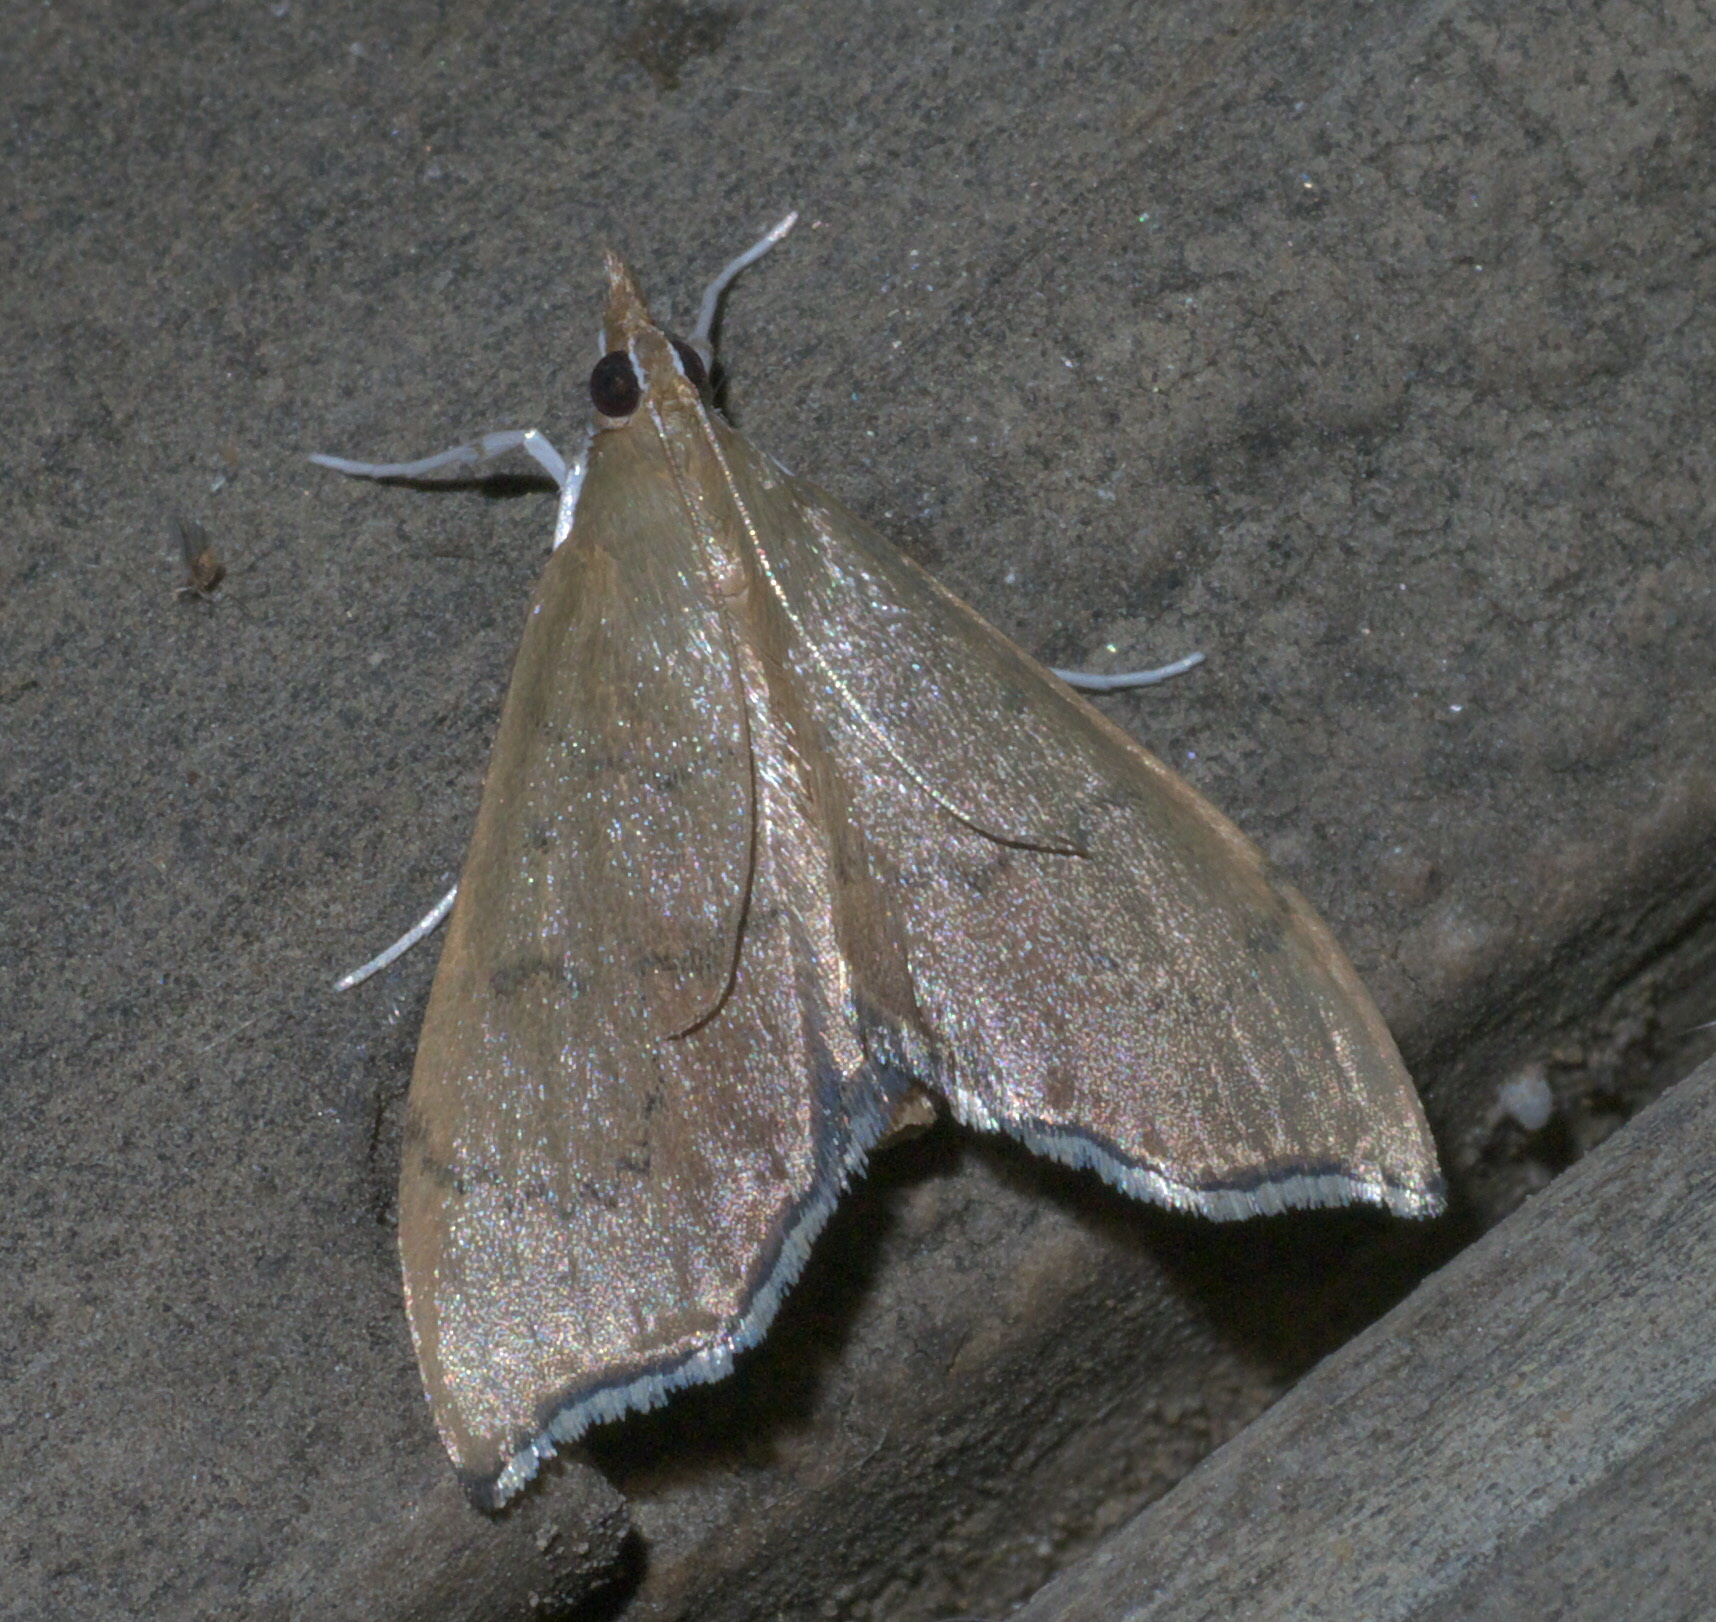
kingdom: Animalia
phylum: Arthropoda
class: Insecta
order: Lepidoptera
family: Crambidae
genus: Sericoplaga
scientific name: Sericoplaga externalis
